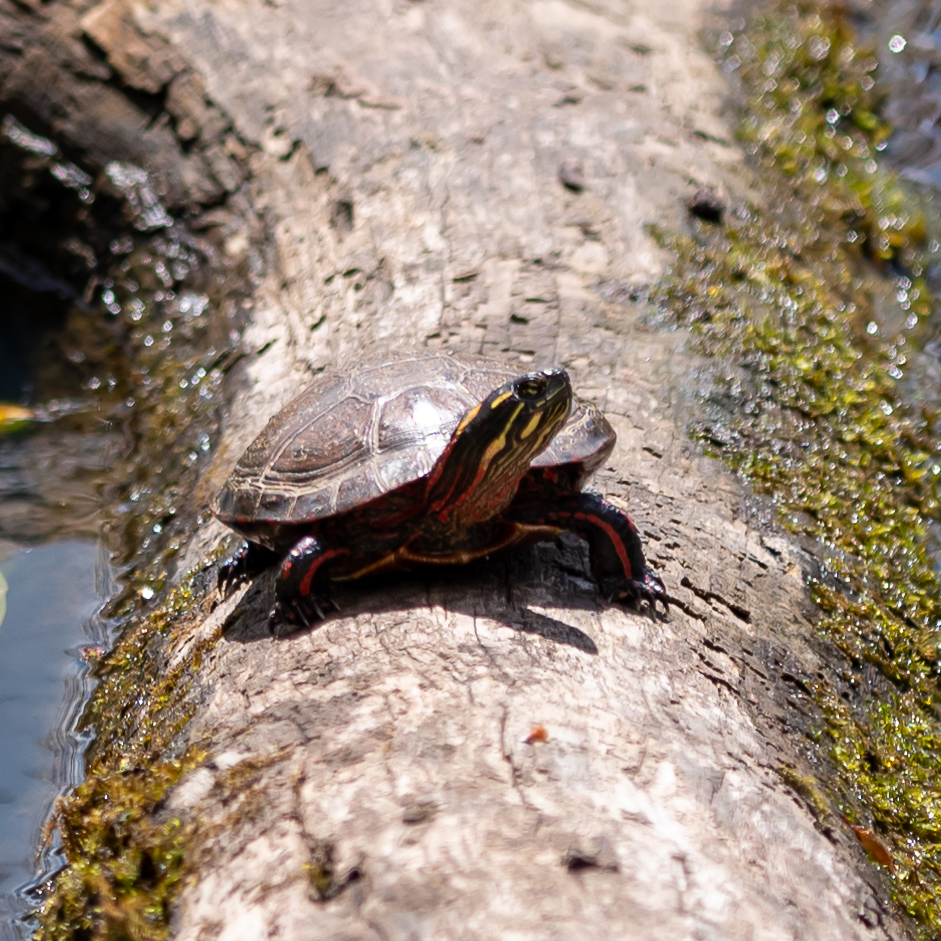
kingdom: Animalia
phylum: Chordata
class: Testudines
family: Emydidae
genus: Chrysemys
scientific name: Chrysemys picta
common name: Painted turtle
